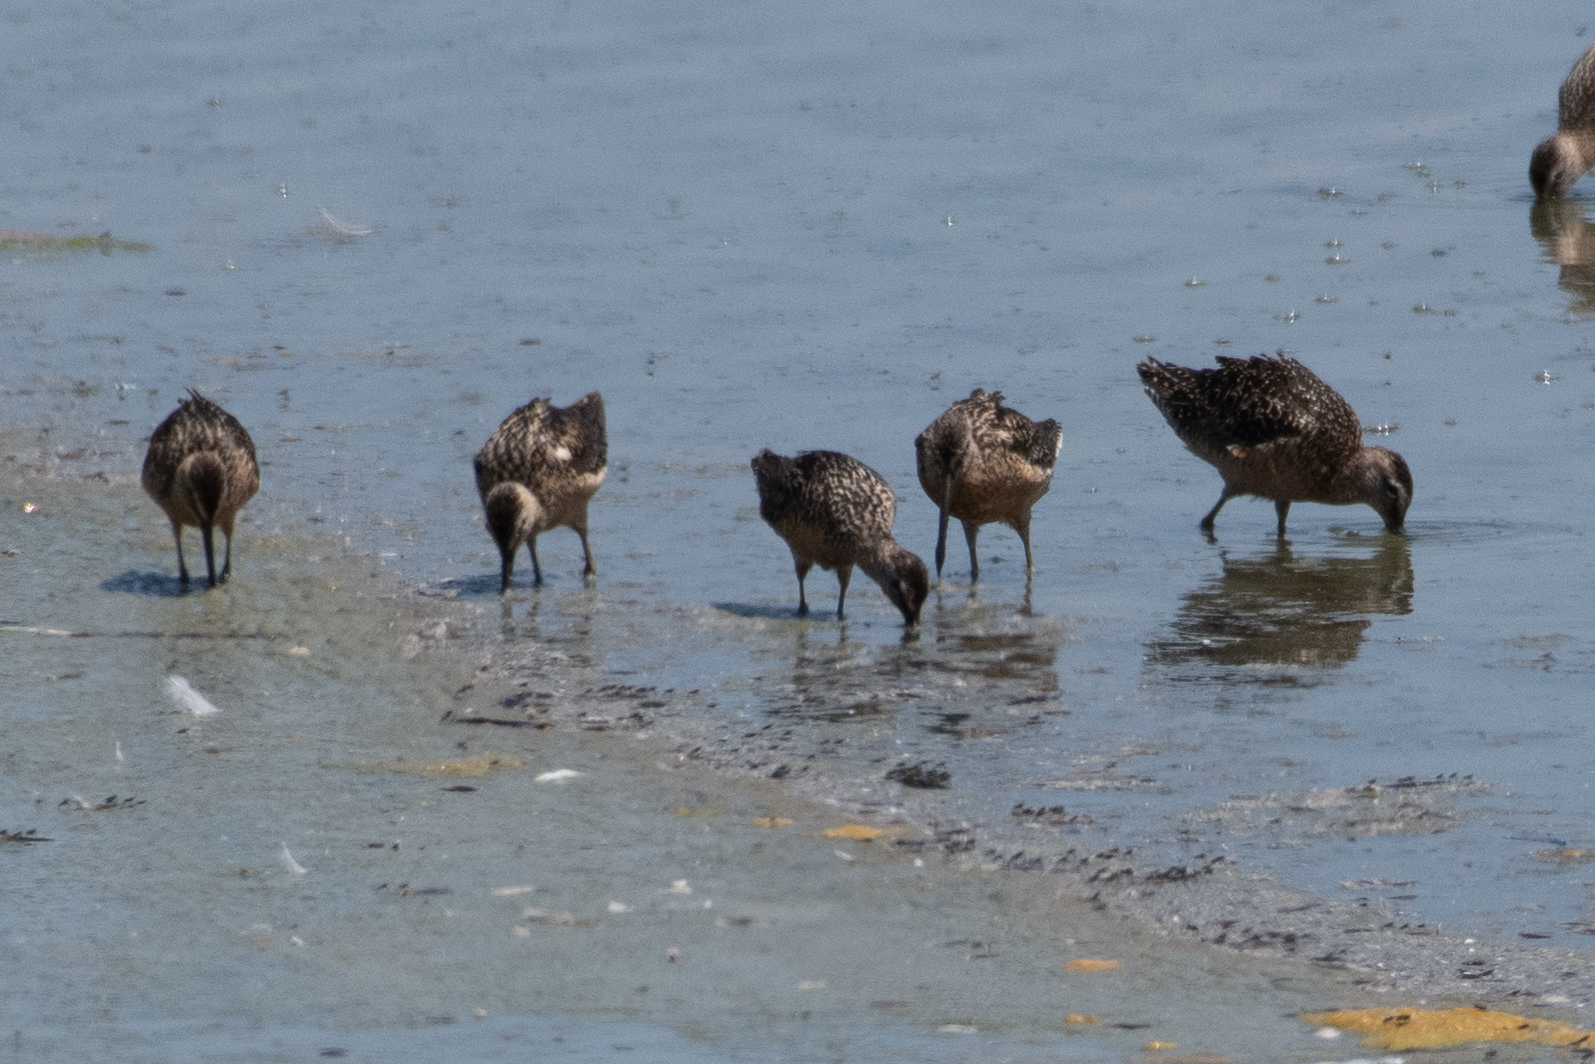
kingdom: Animalia
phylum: Chordata
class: Aves
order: Charadriiformes
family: Scolopacidae
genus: Limnodromus
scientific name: Limnodromus scolopaceus
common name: Long-billed dowitcher
